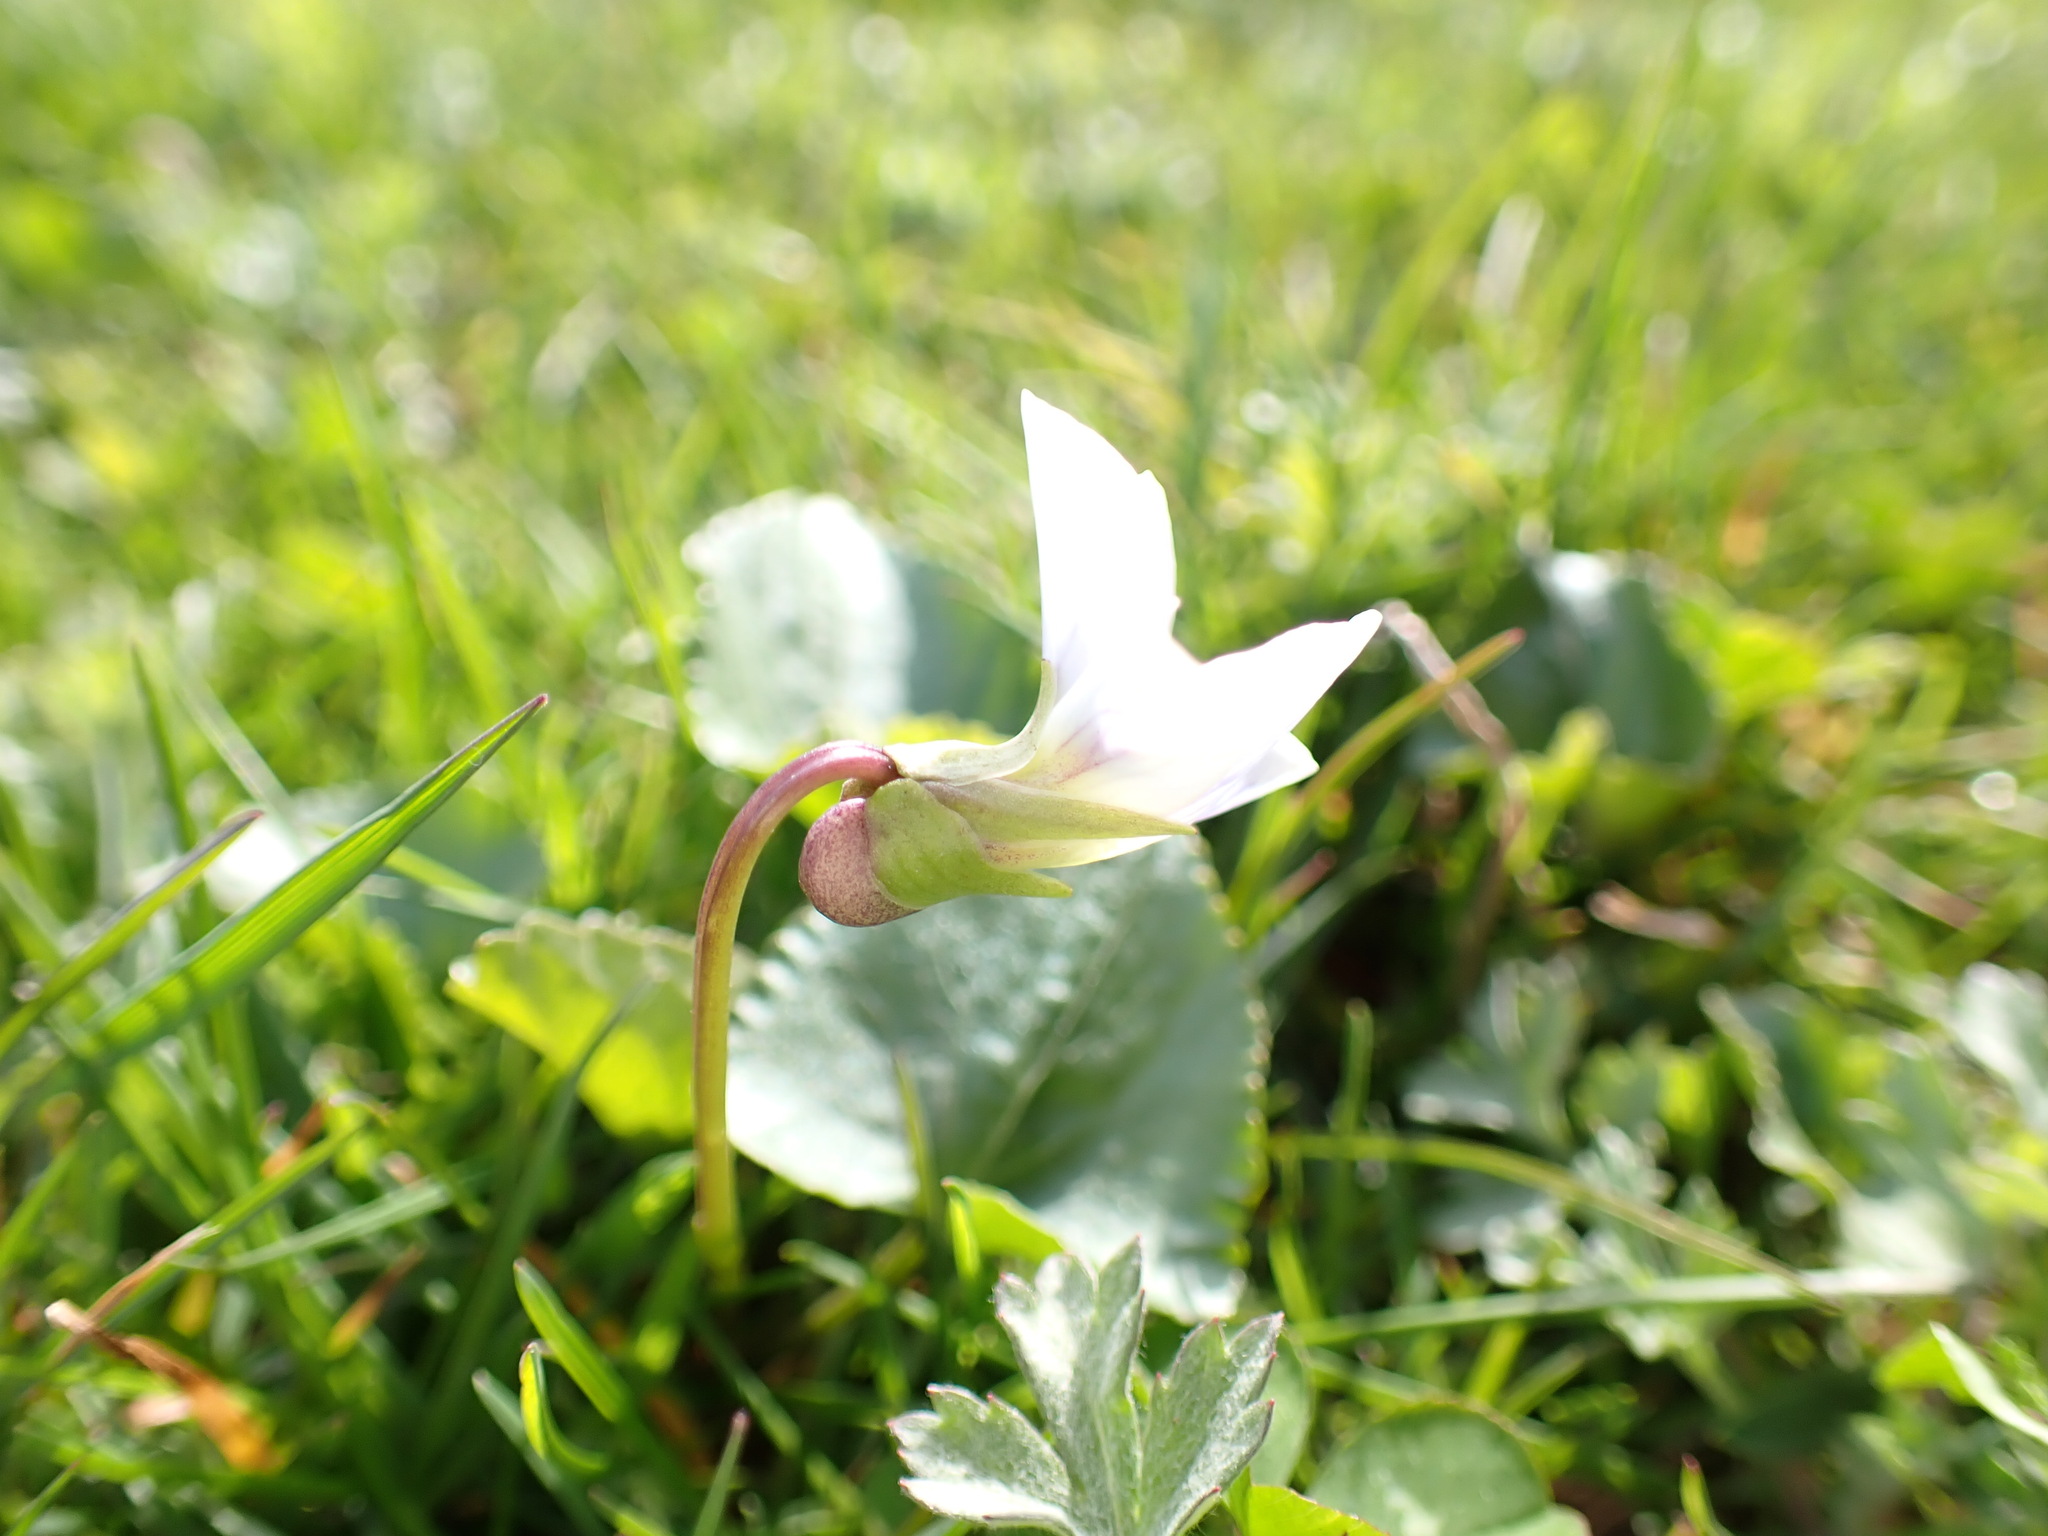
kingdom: Plantae
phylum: Tracheophyta
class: Magnoliopsida
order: Malpighiales
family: Violaceae
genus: Viola
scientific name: Viola sororia
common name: Dooryard violet
